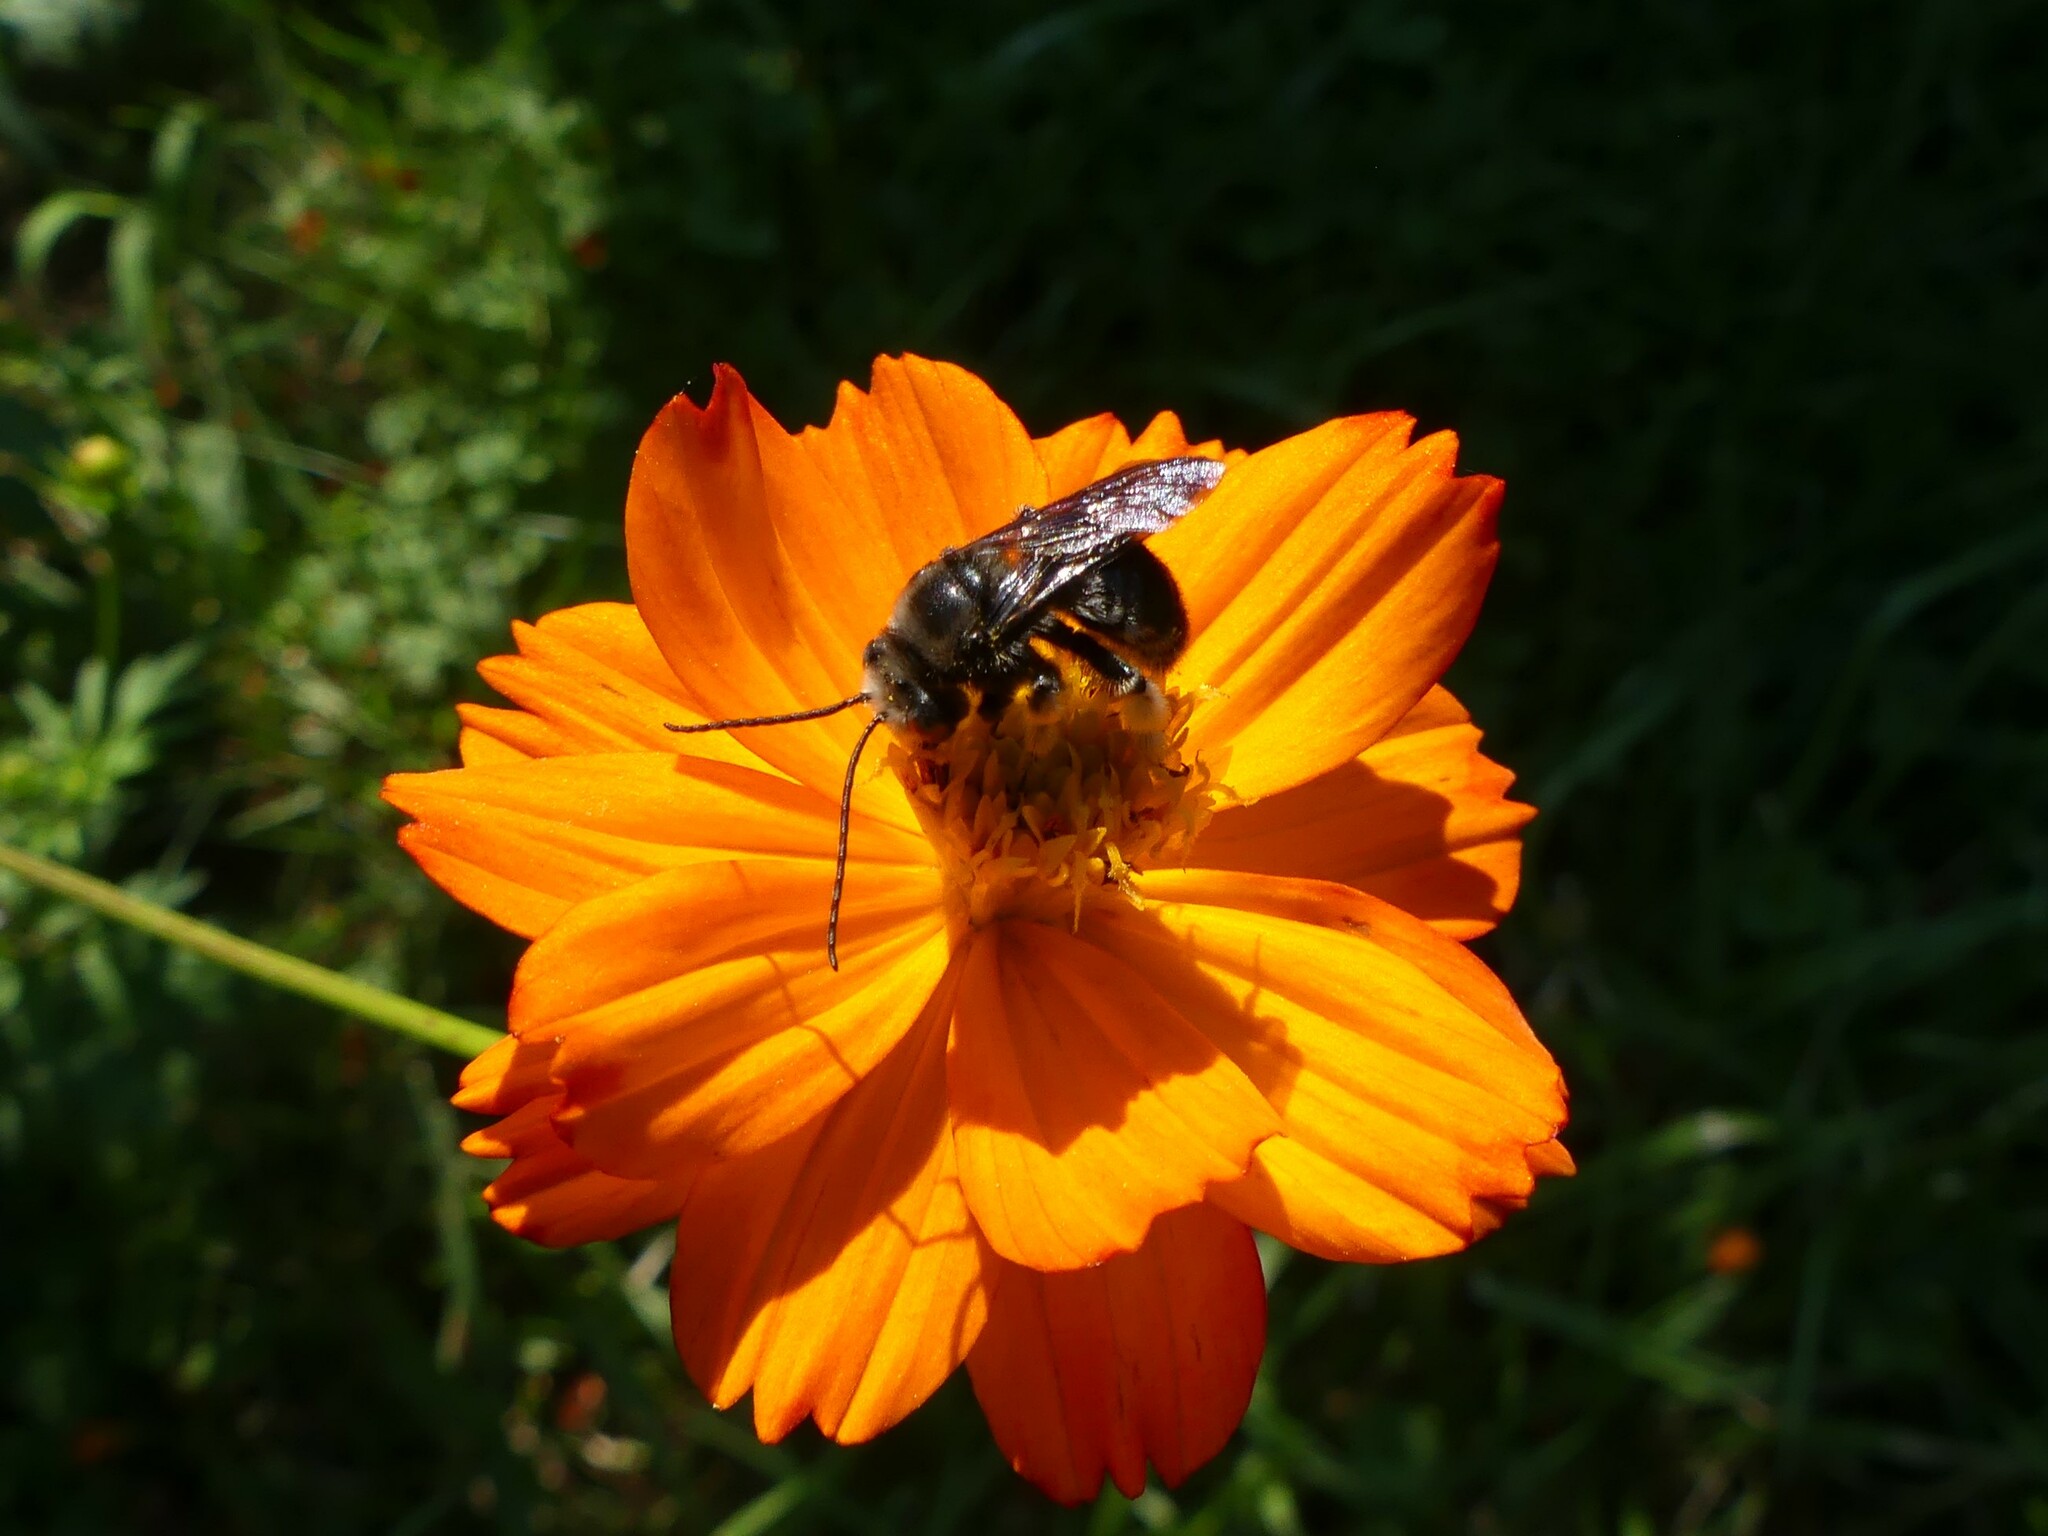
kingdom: Animalia
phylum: Arthropoda
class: Insecta
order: Hymenoptera
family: Apidae
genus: Melissodes
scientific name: Melissodes bimaculatus
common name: Two-spotted long-horned bee
